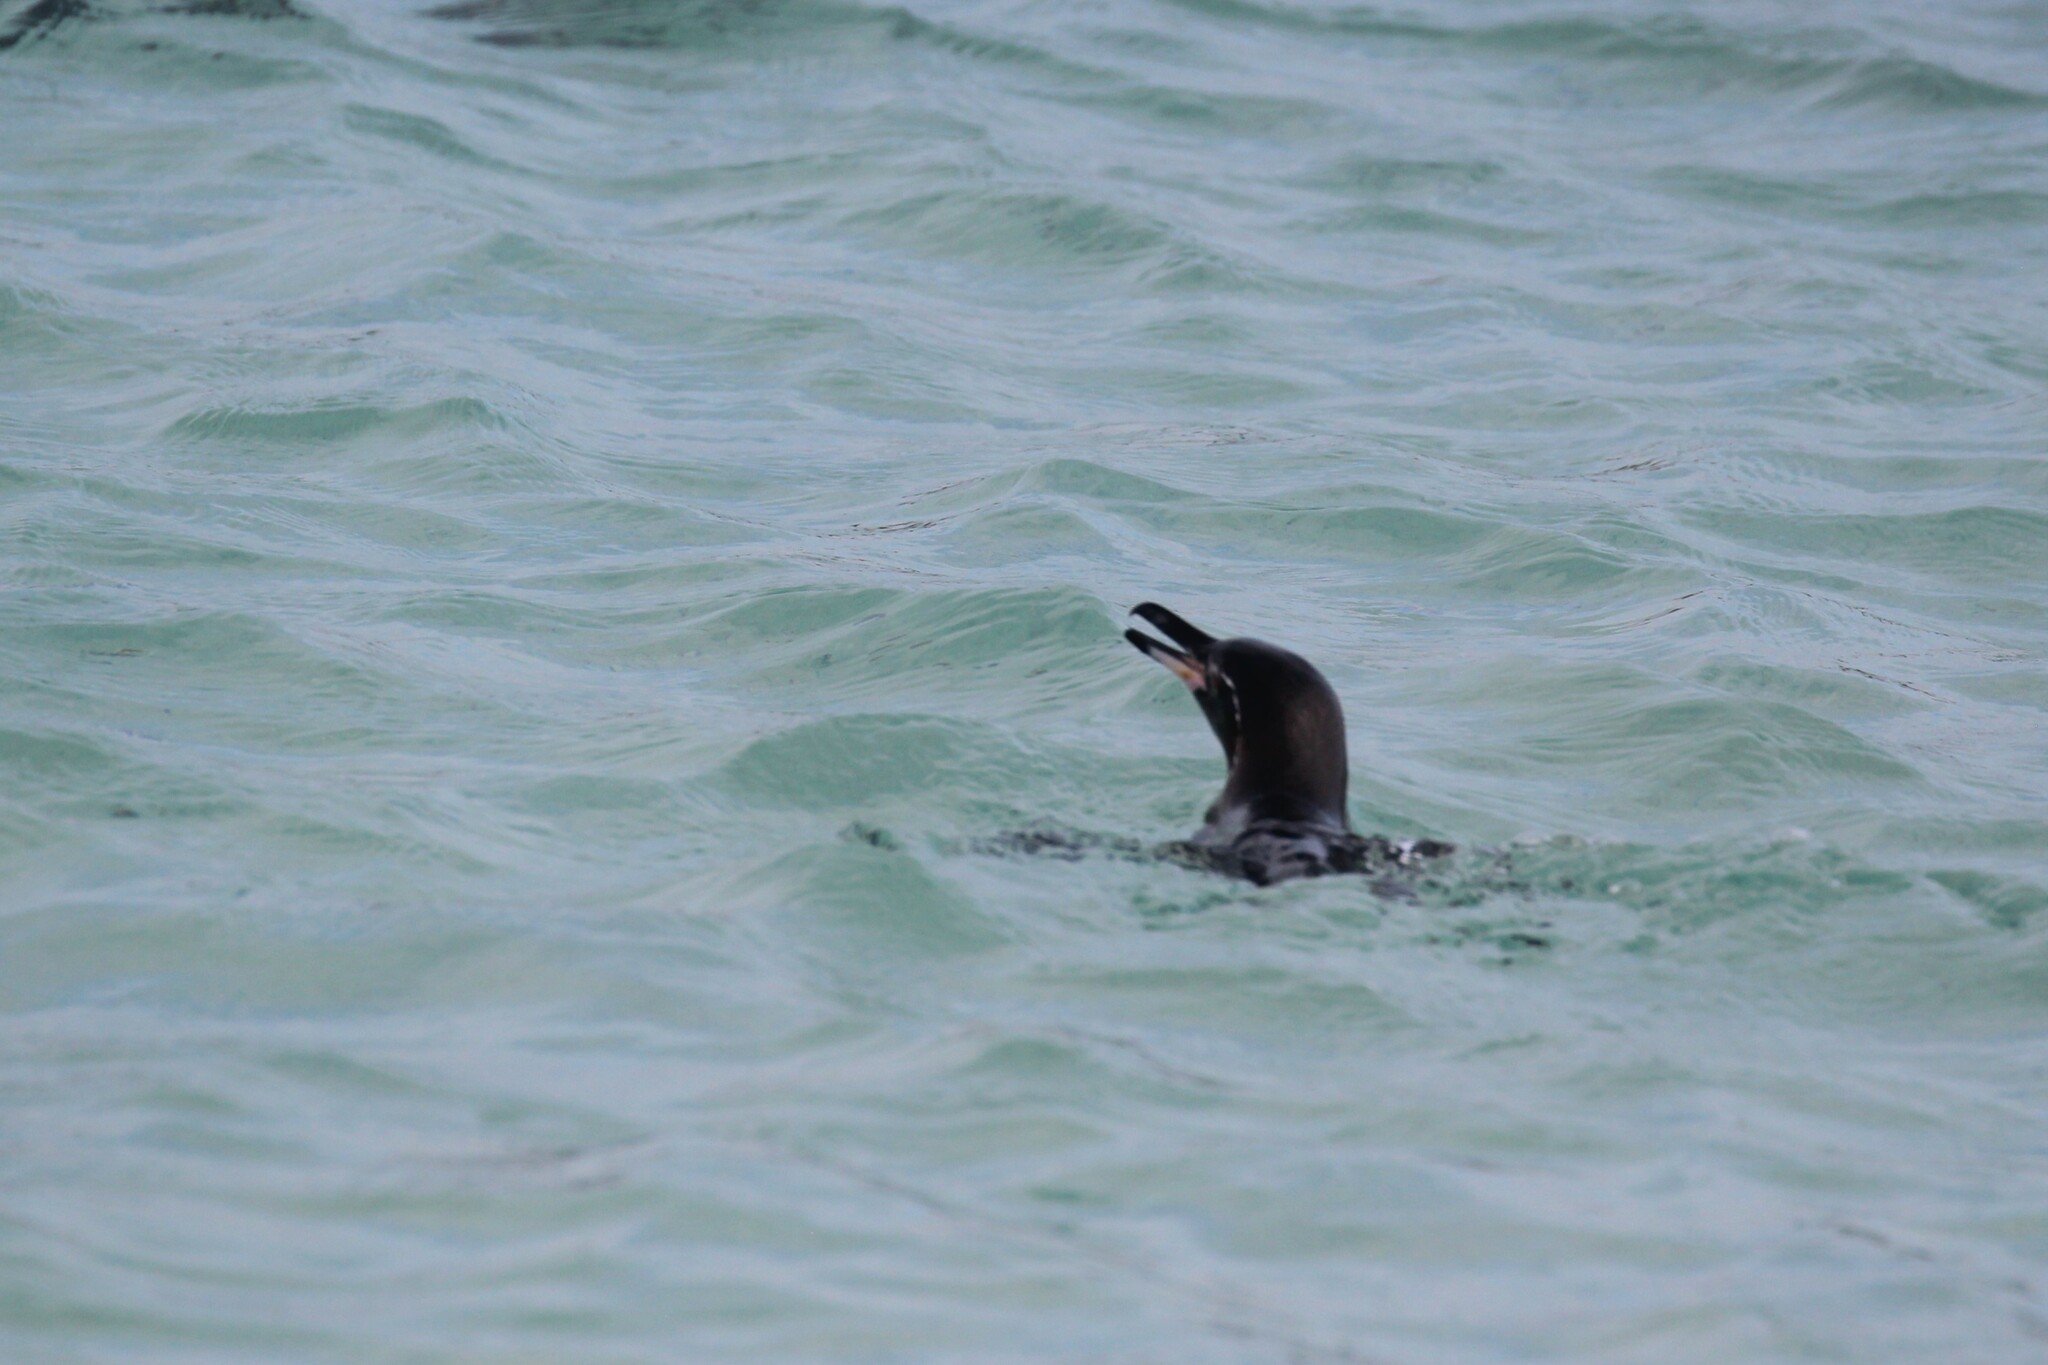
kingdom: Animalia
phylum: Chordata
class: Aves
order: Sphenisciformes
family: Spheniscidae
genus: Spheniscus
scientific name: Spheniscus mendiculus
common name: Galapagos penguin
